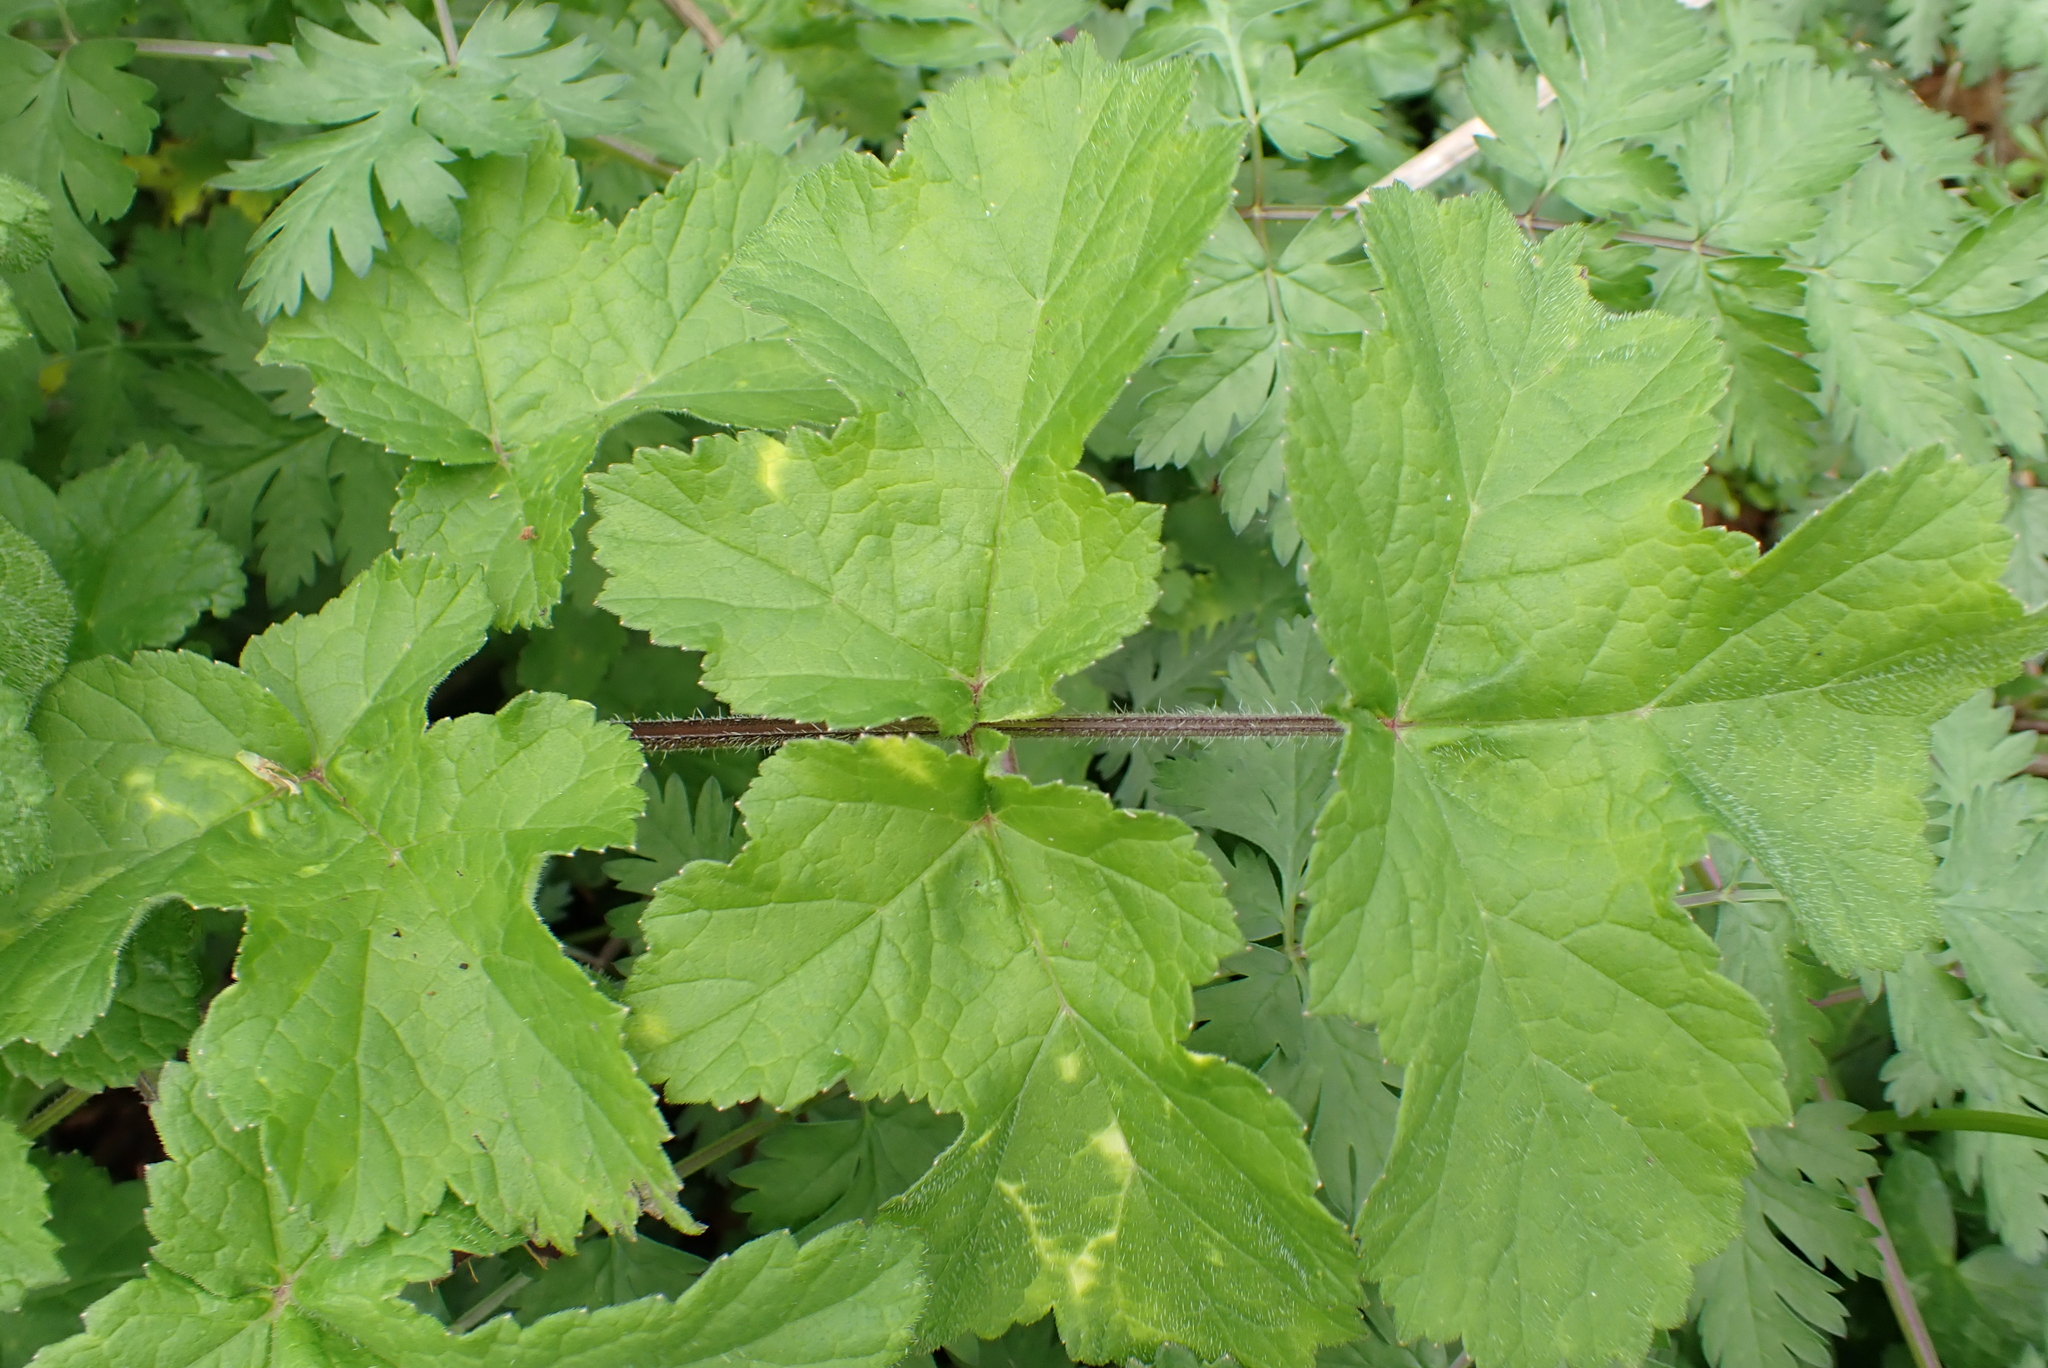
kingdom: Plantae
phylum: Tracheophyta
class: Magnoliopsida
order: Apiales
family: Apiaceae
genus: Heracleum
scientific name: Heracleum sphondylium
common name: Hogweed
